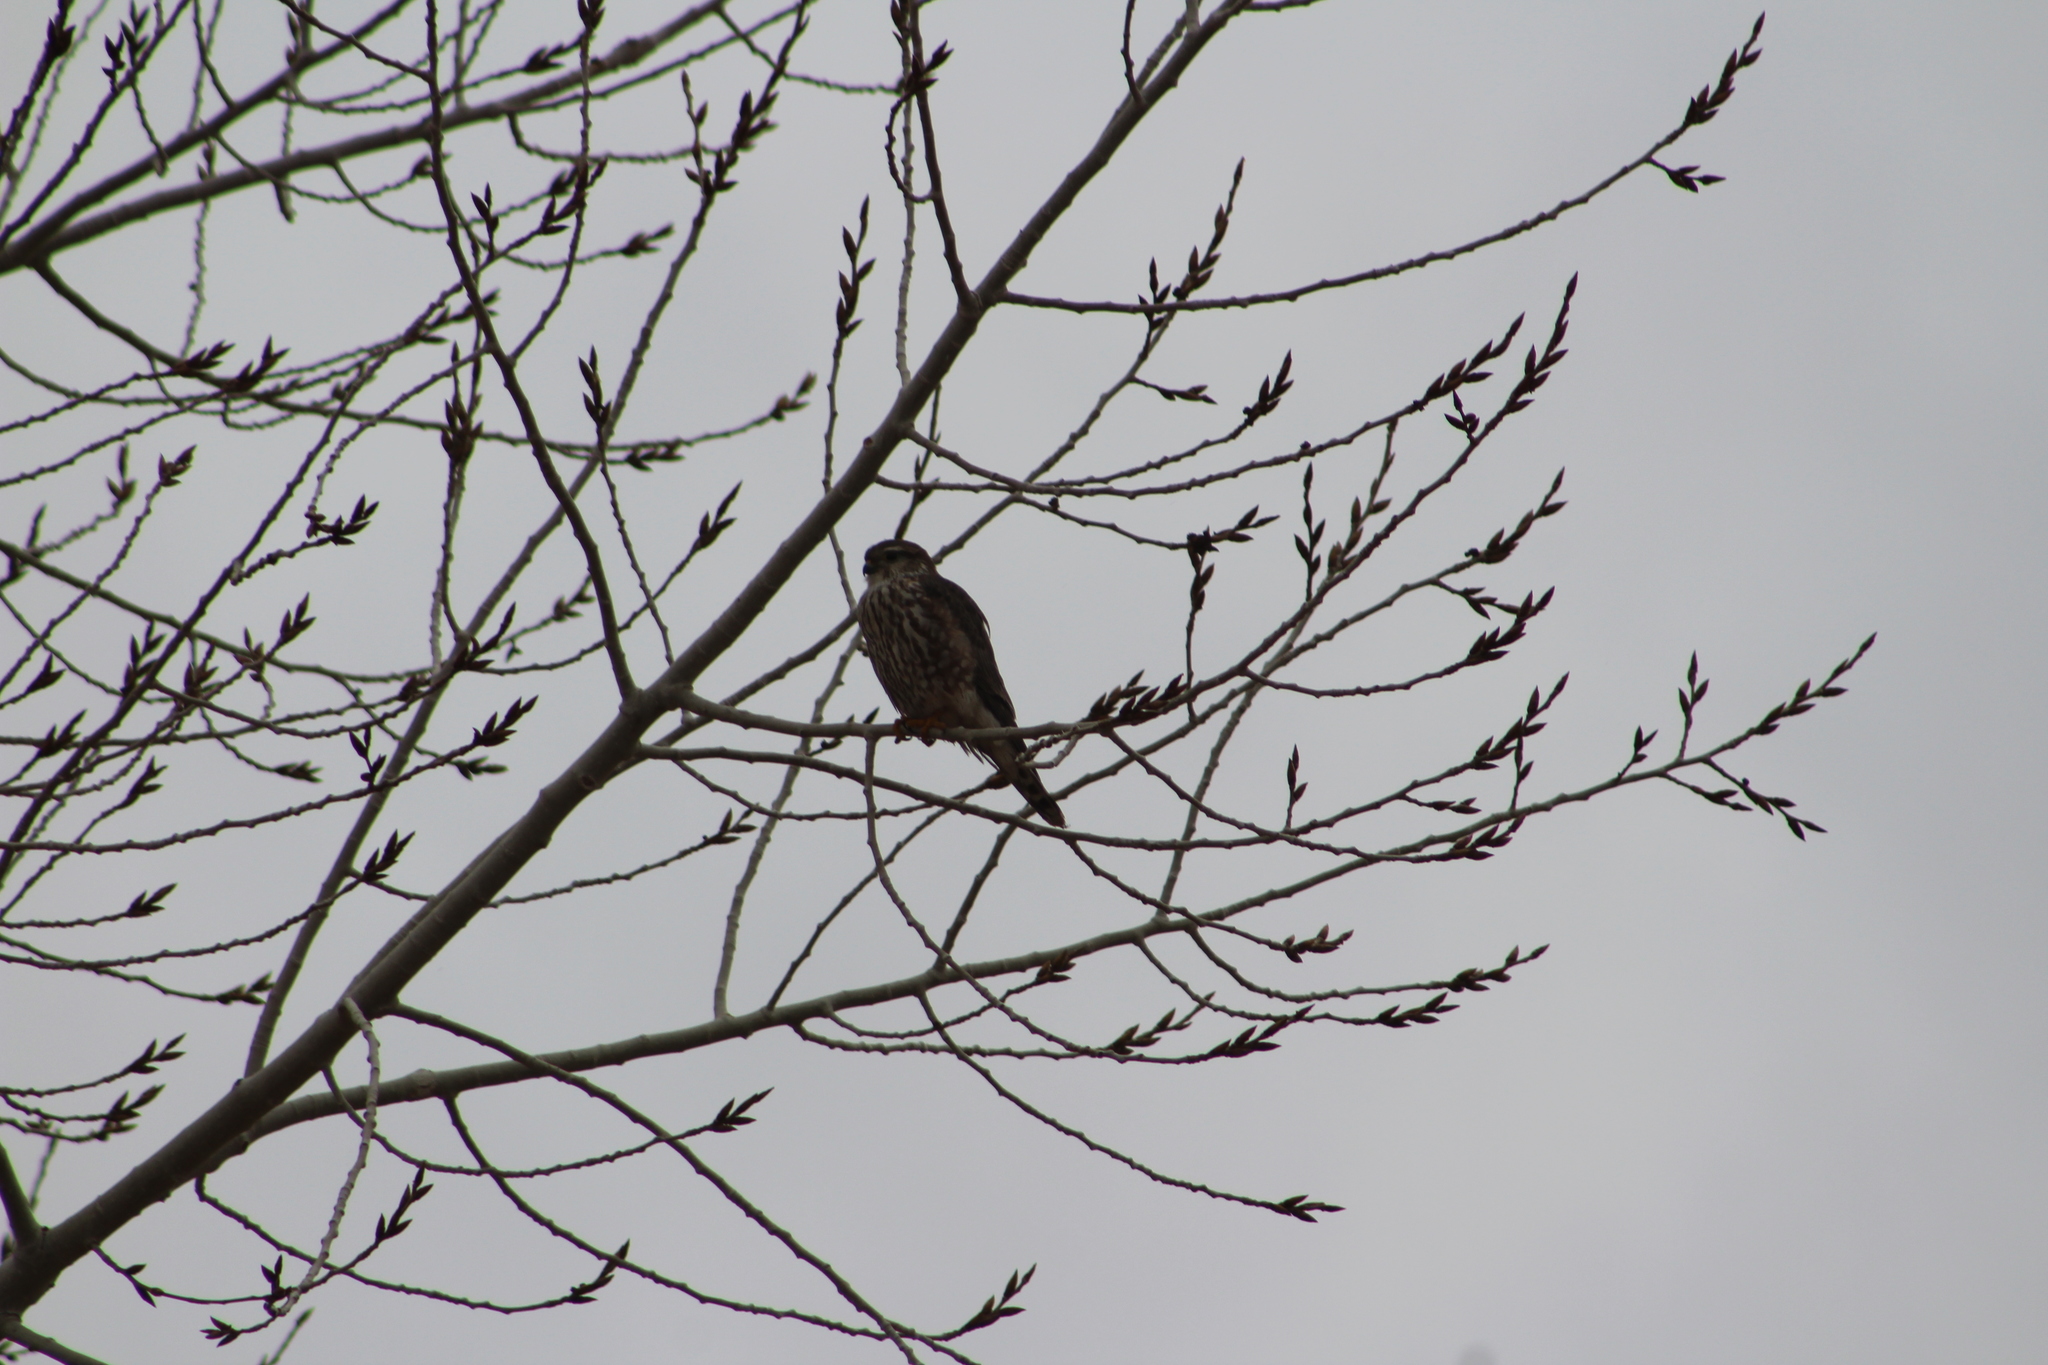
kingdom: Animalia
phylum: Chordata
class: Aves
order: Falconiformes
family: Falconidae
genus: Falco
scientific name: Falco columbarius
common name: Merlin
